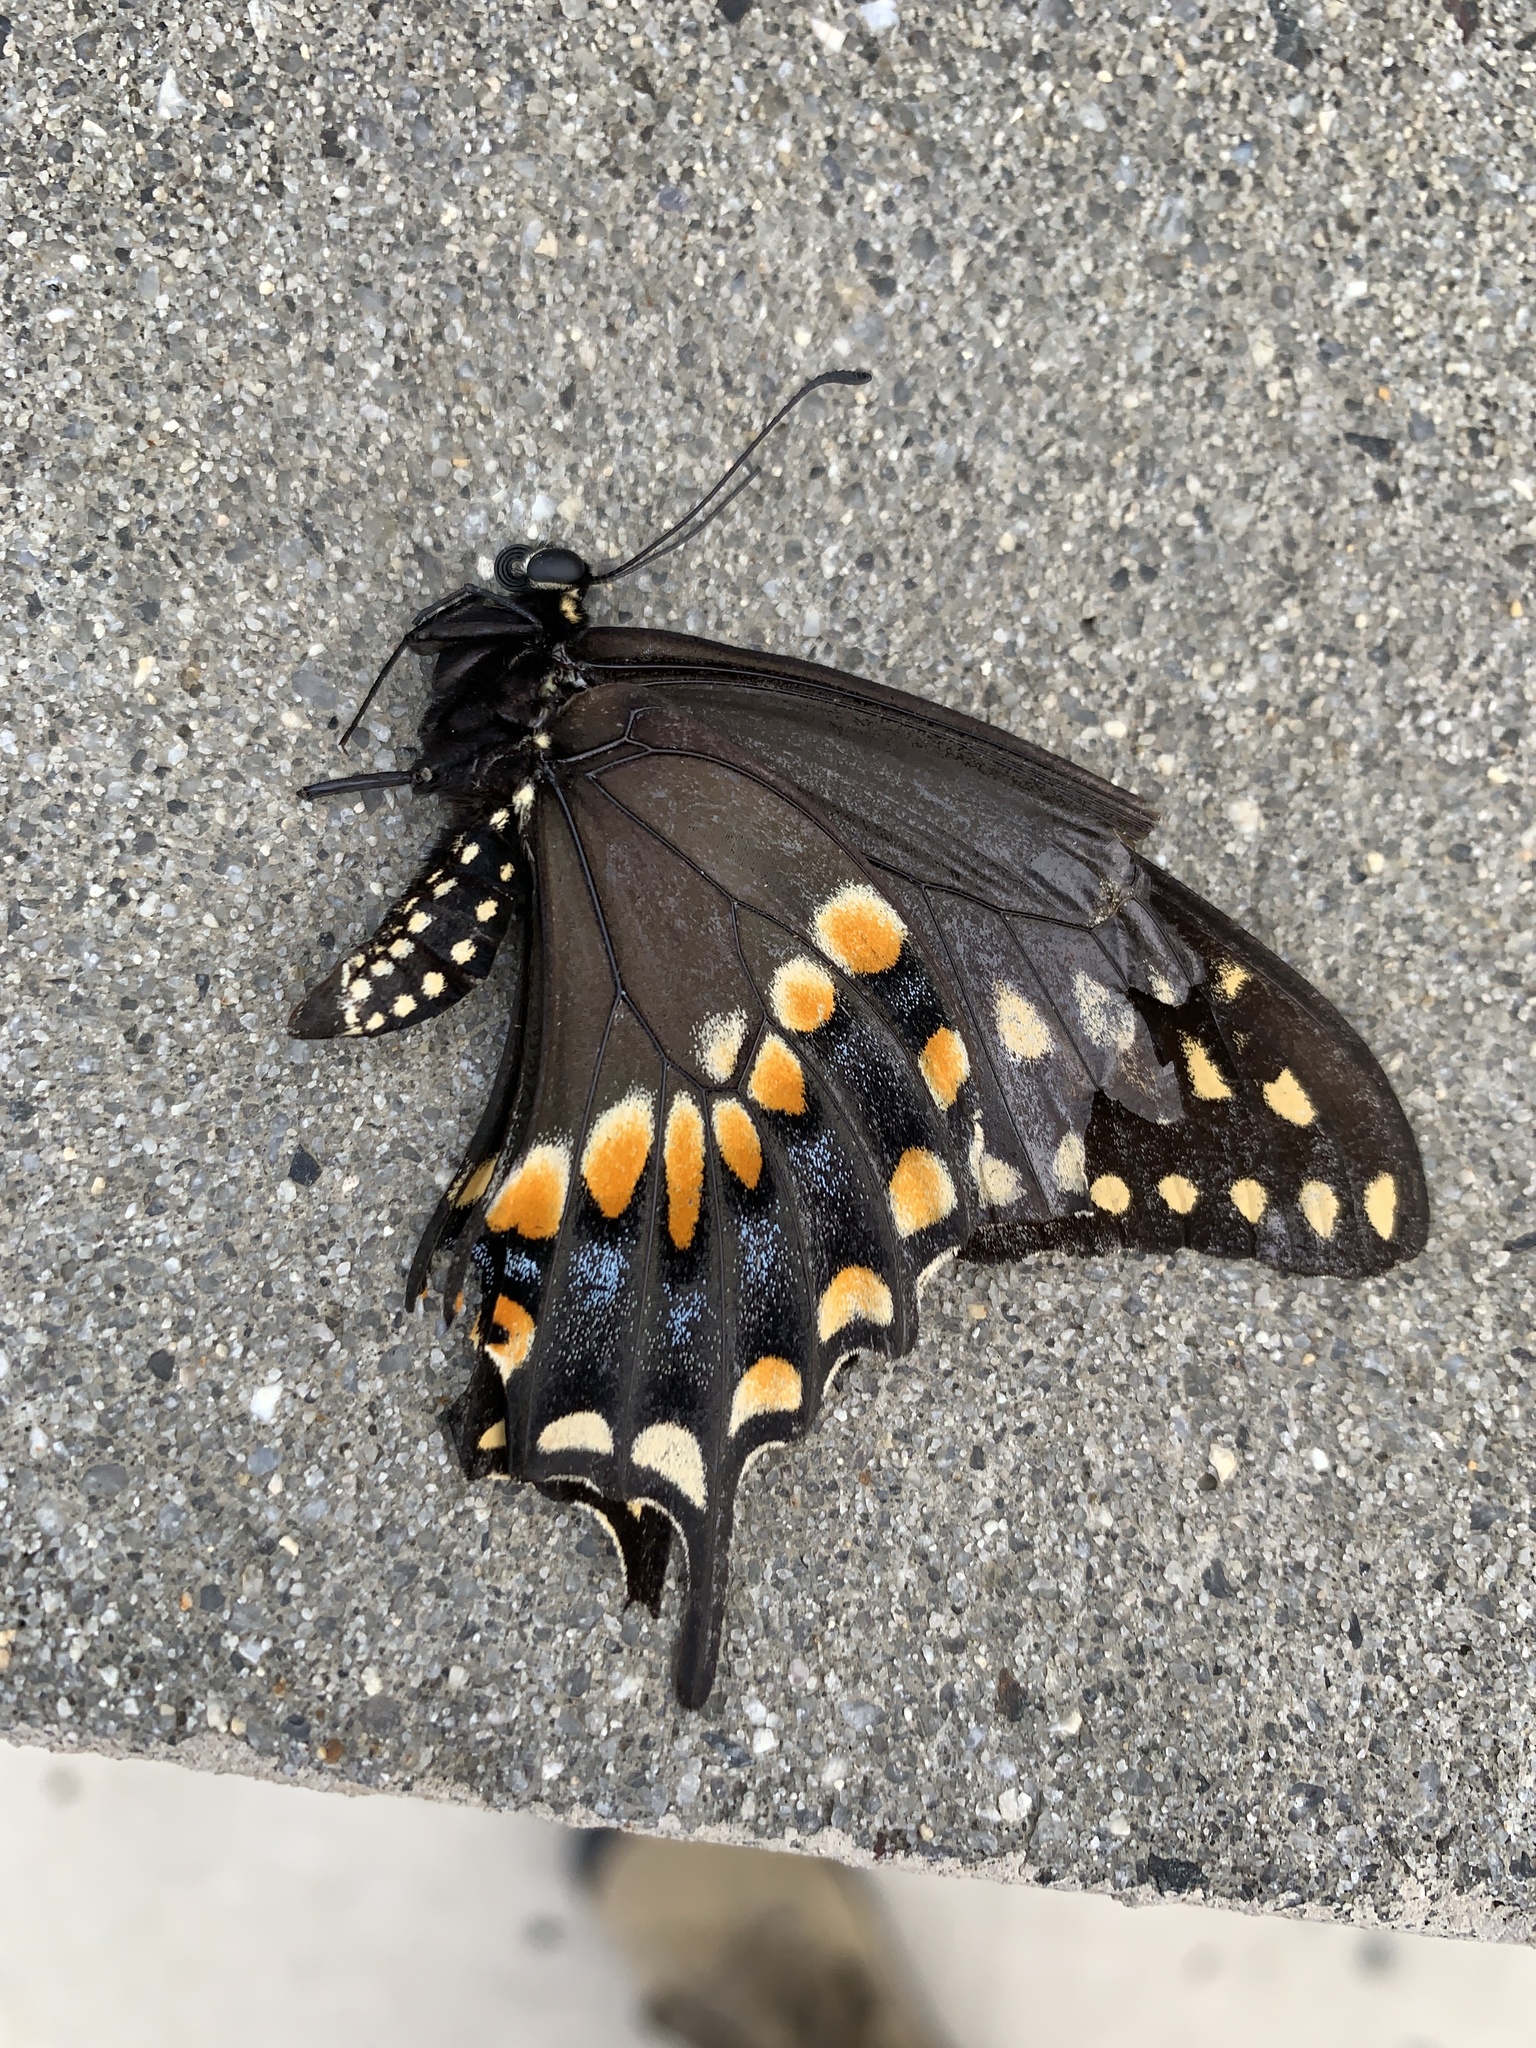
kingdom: Animalia
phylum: Arthropoda
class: Insecta
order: Lepidoptera
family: Papilionidae
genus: Papilio
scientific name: Papilio polyxenes
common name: Black swallowtail
